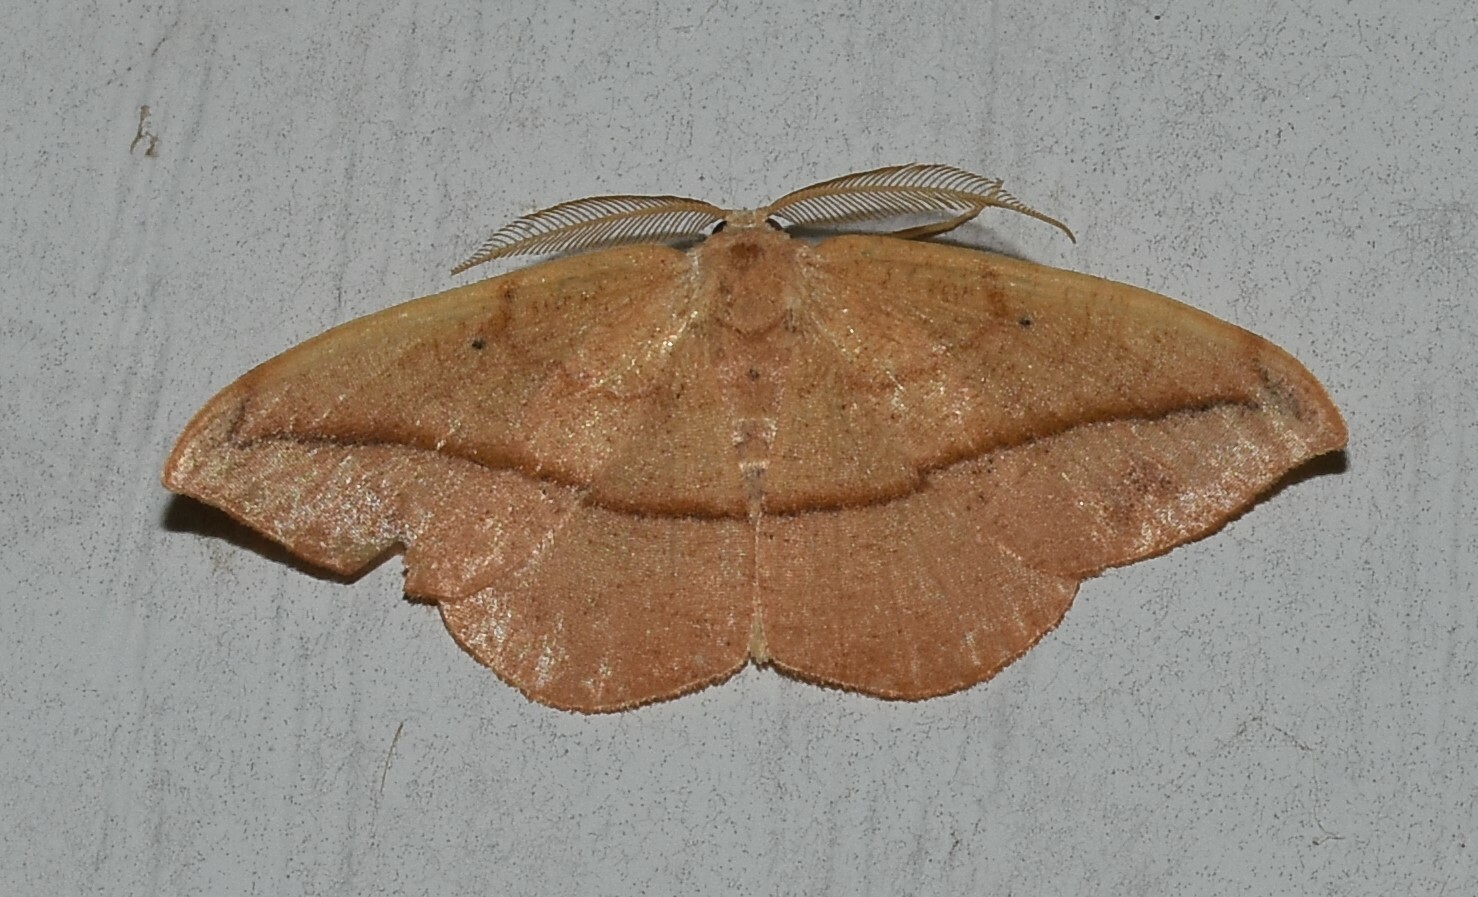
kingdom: Animalia
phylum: Arthropoda
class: Insecta
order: Lepidoptera
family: Geometridae
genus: Patalene
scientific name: Patalene olyzonaria
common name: Juniper geometer moth
